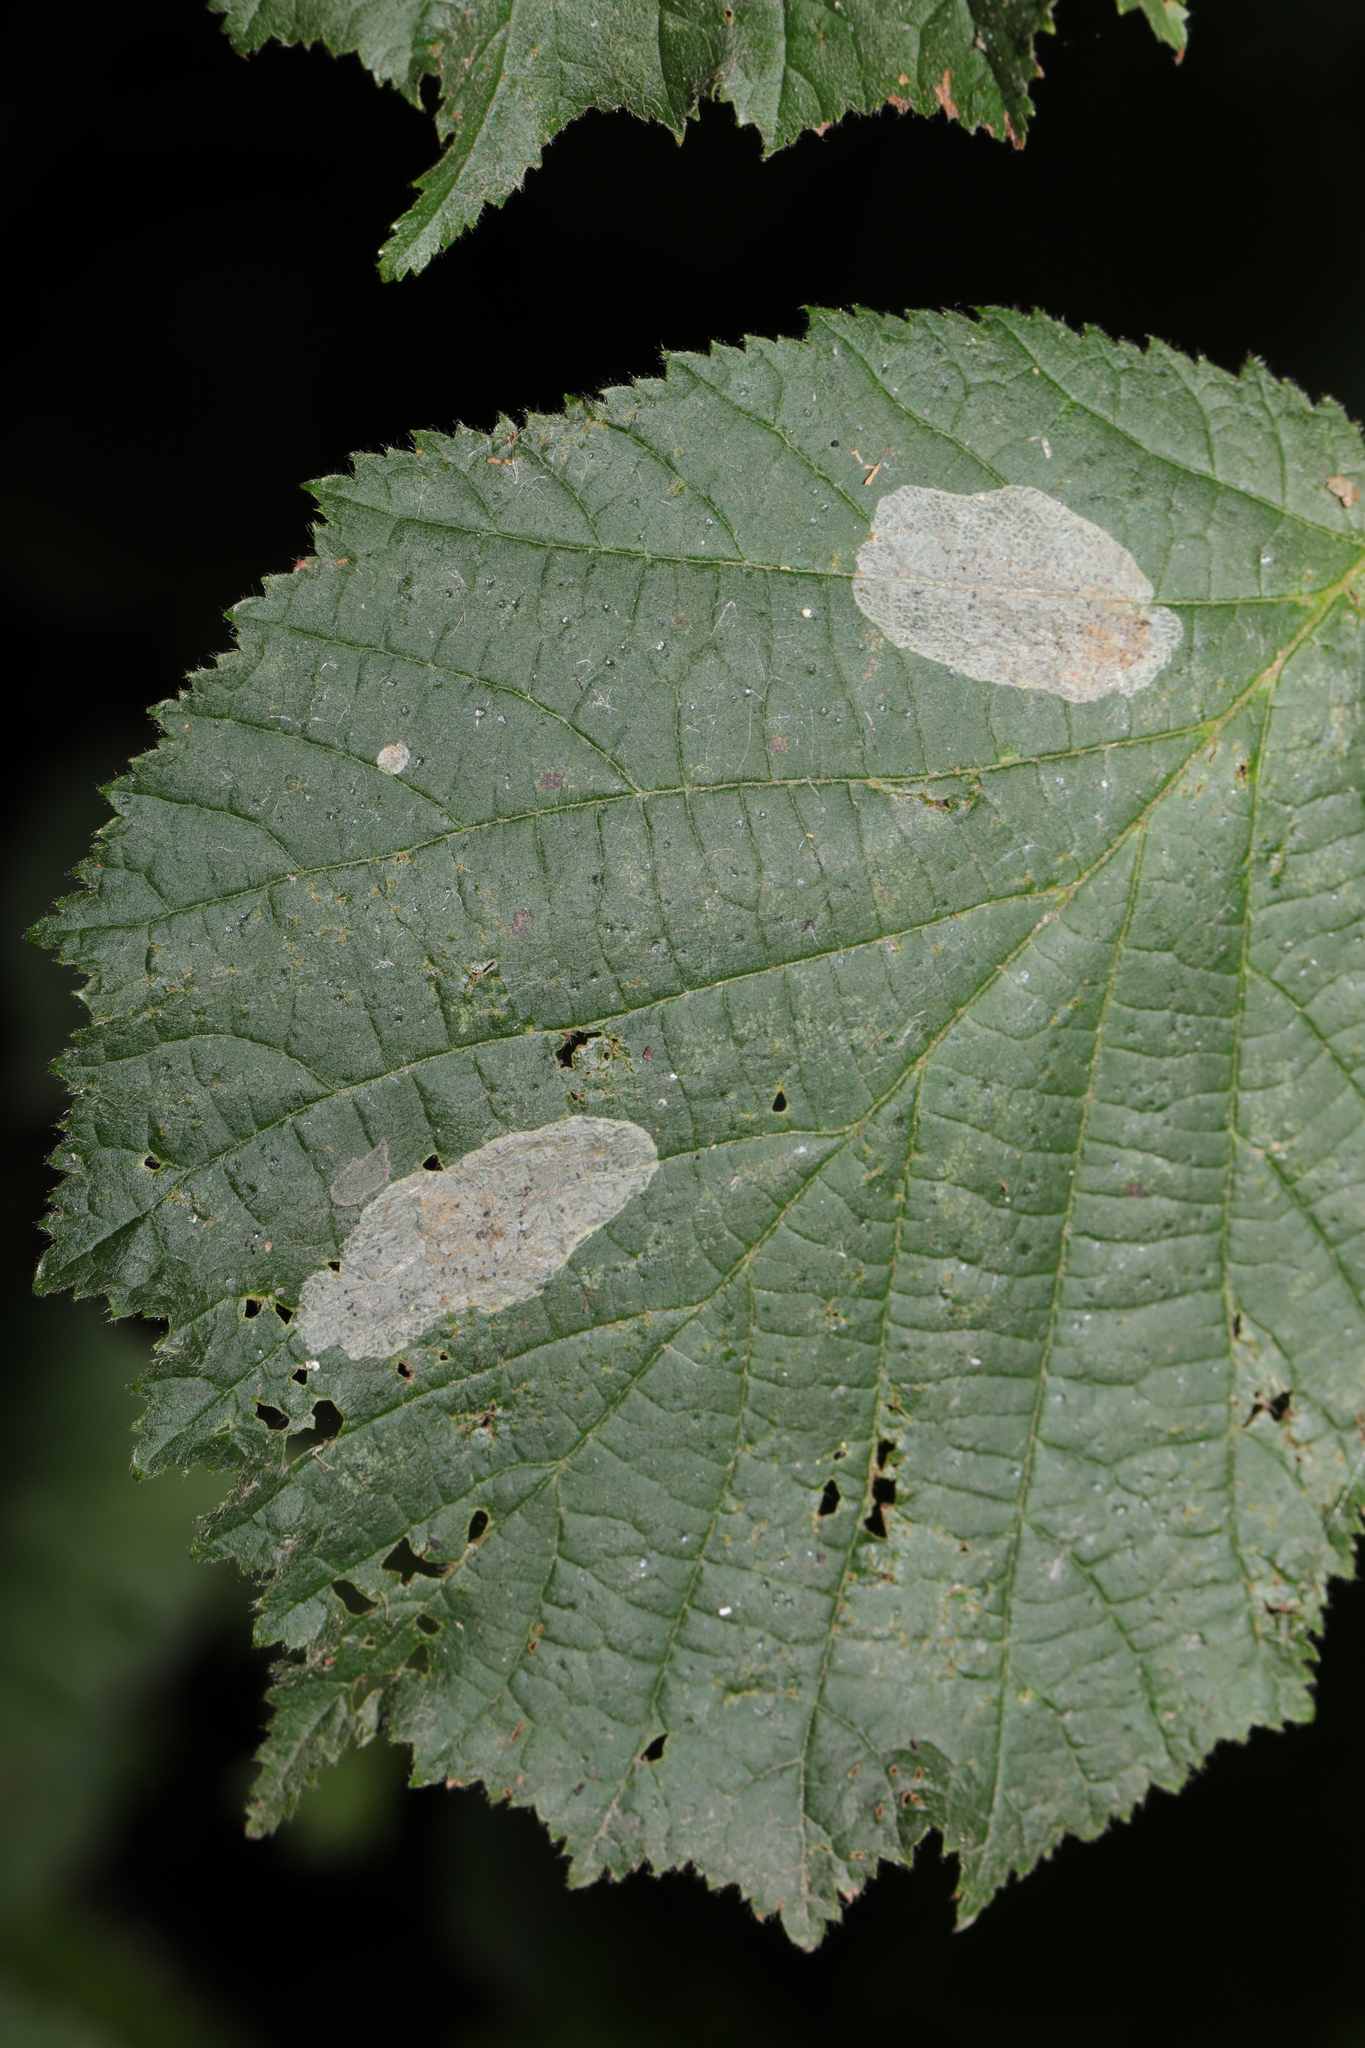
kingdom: Animalia
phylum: Arthropoda
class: Insecta
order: Lepidoptera
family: Gracillariidae
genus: Phyllonorycter
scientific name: Phyllonorycter coryli
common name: Nut-leaf blister moth
